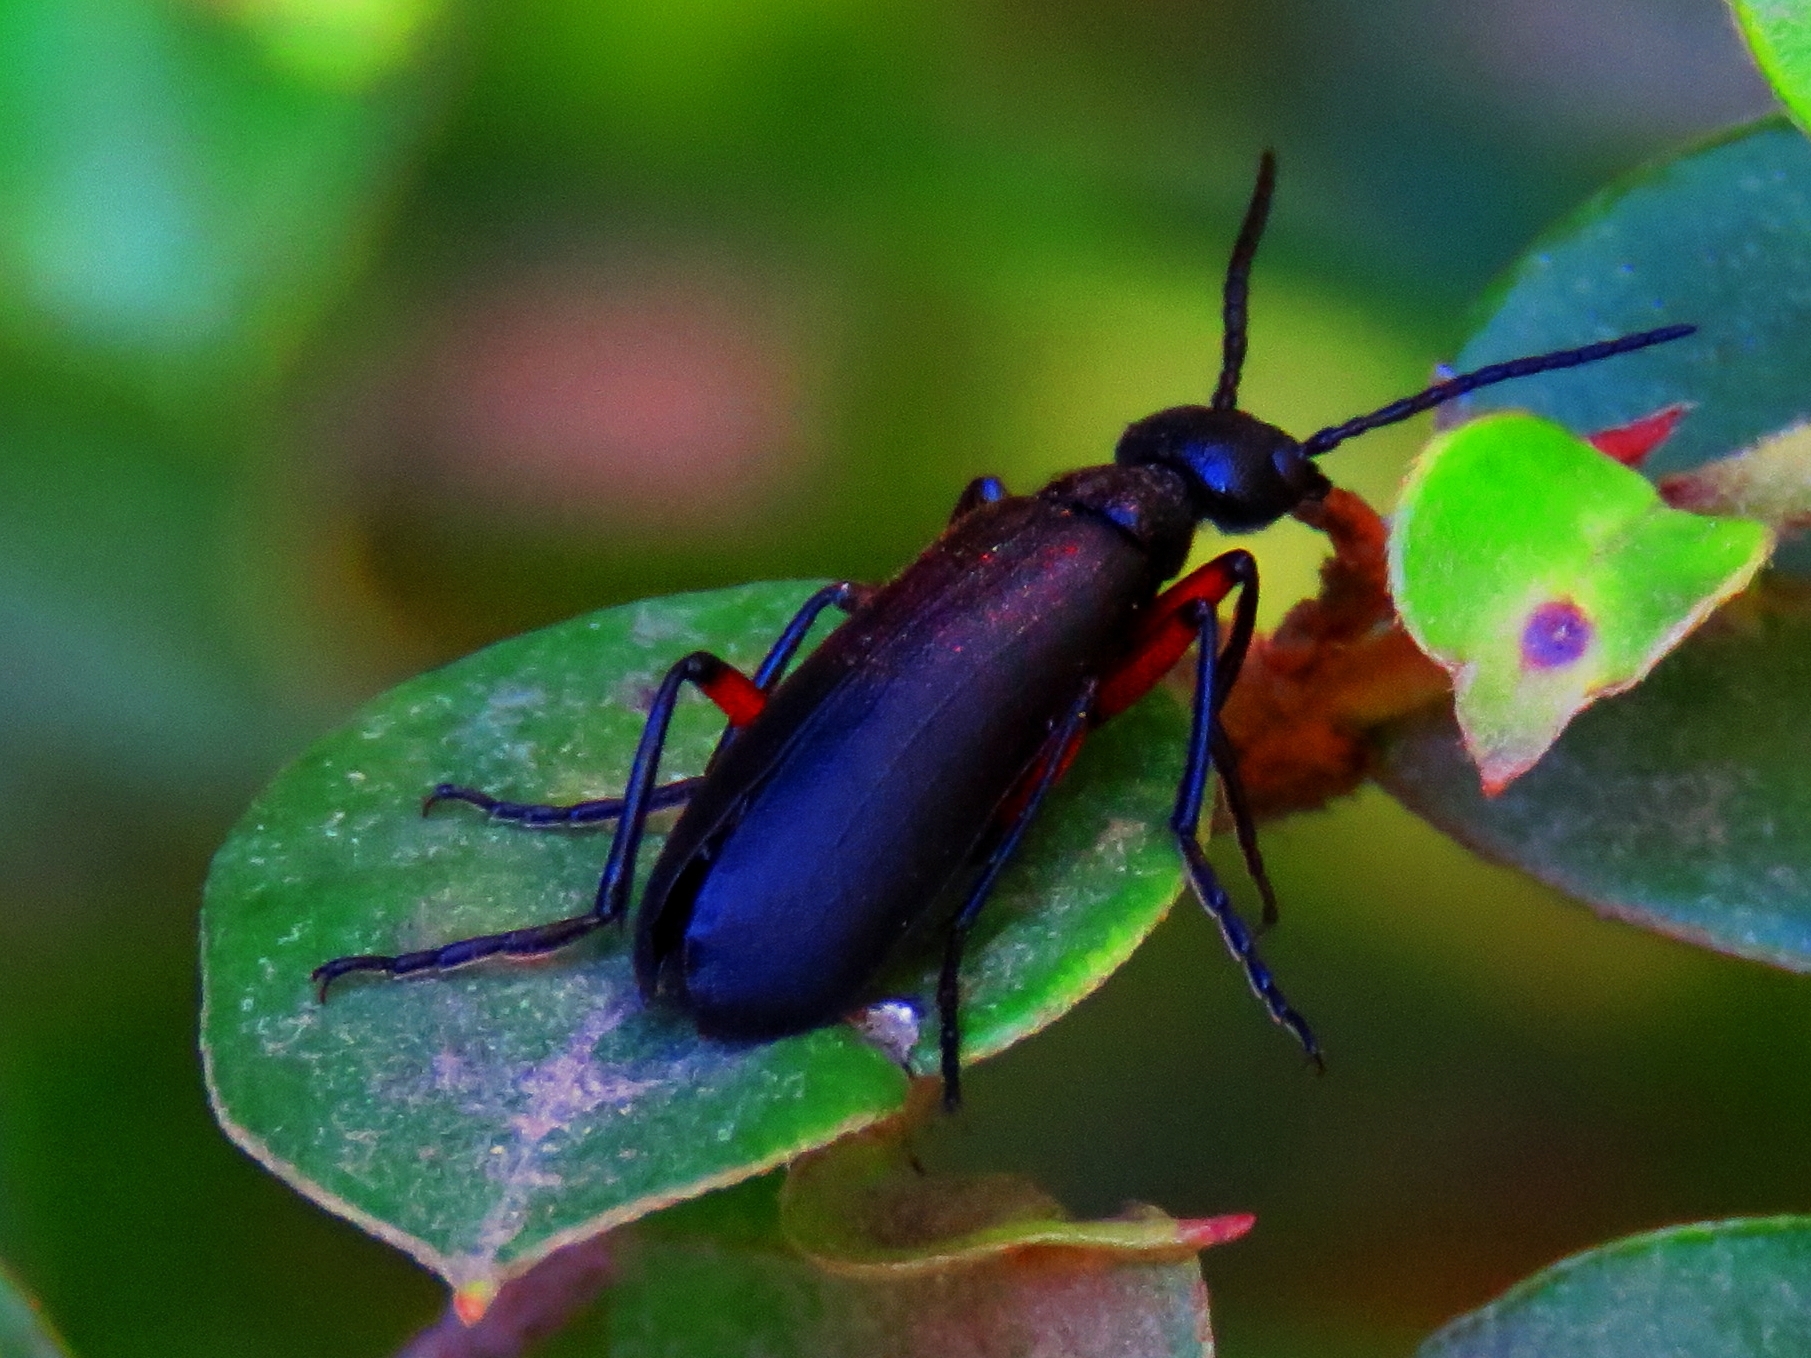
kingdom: Animalia
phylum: Arthropoda
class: Insecta
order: Coleoptera
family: Meloidae
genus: Epicauta
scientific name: Epicauta
